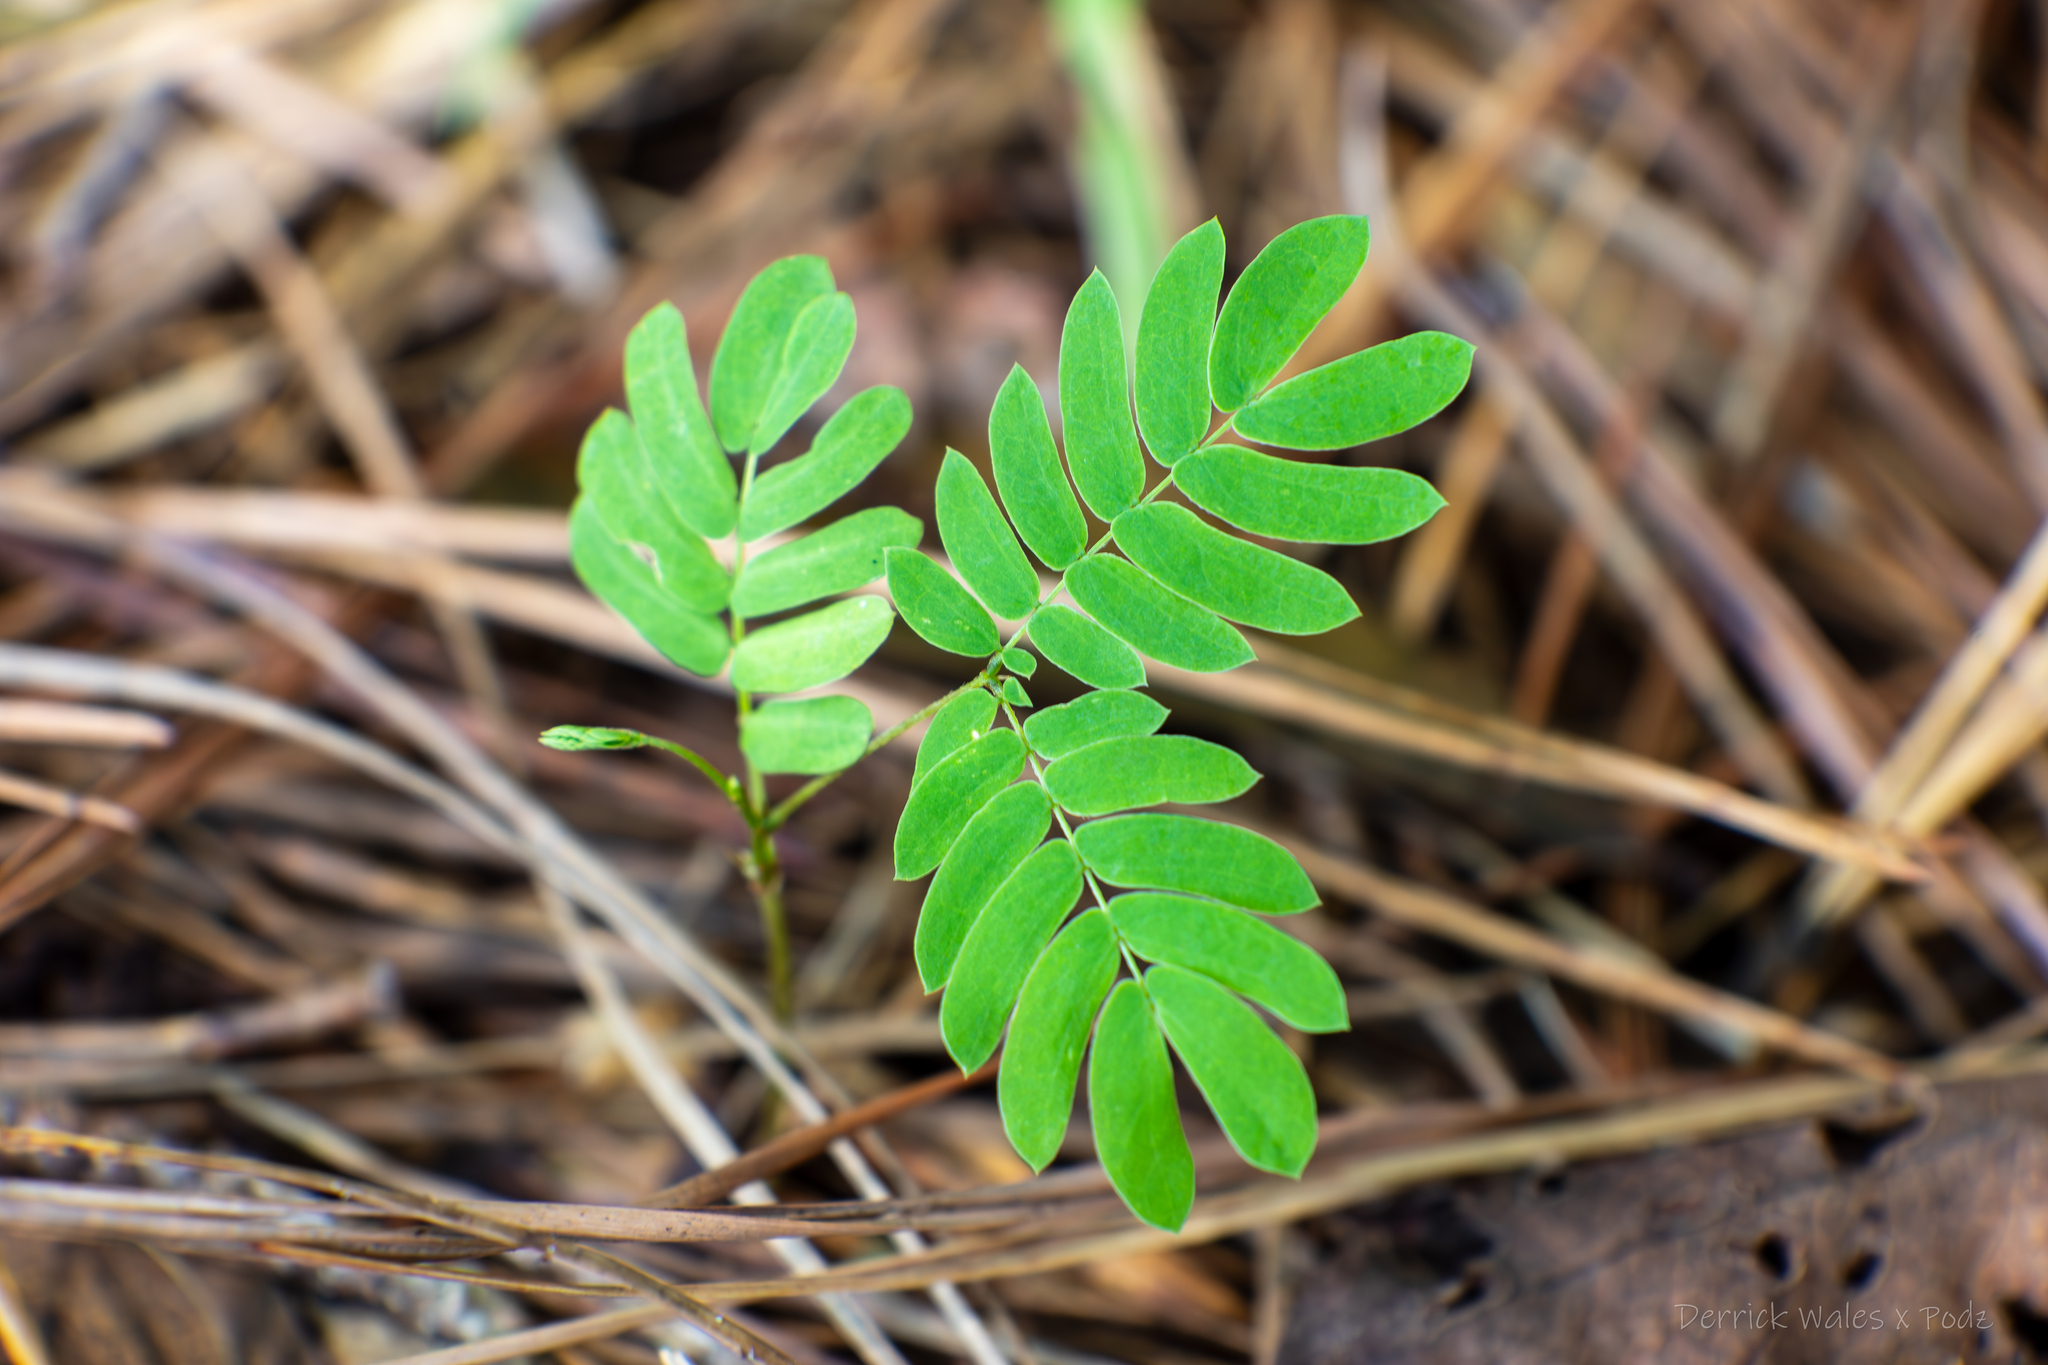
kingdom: Plantae
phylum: Tracheophyta
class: Magnoliopsida
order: Fabales
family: Fabaceae
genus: Albizia
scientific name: Albizia julibrissin
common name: Silktree
